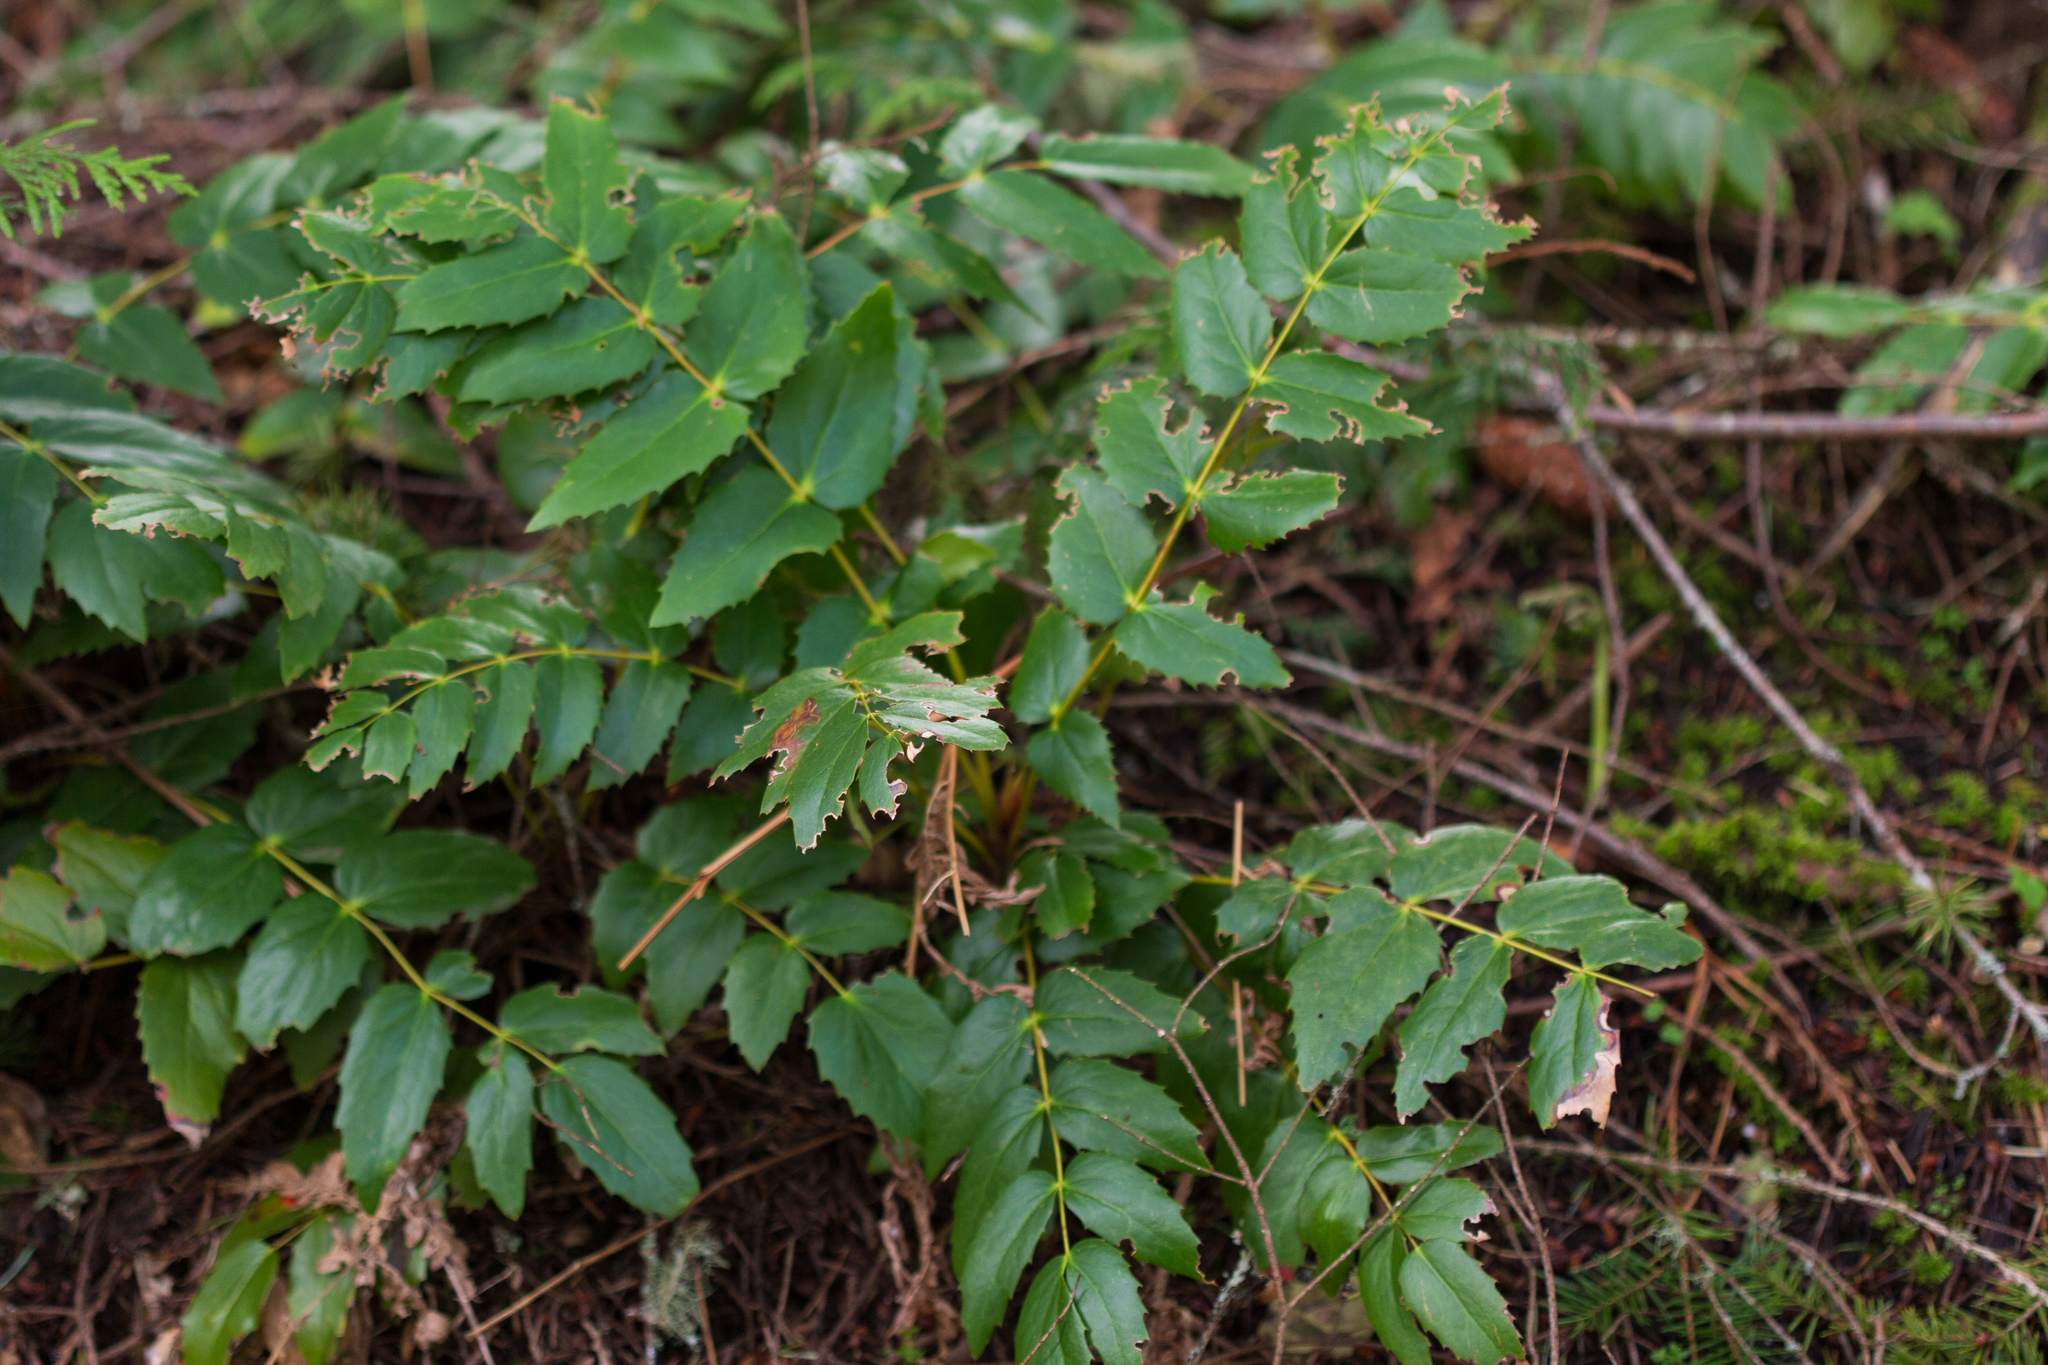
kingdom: Plantae
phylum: Tracheophyta
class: Magnoliopsida
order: Ranunculales
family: Berberidaceae
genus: Mahonia
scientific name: Mahonia nervosa
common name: Cascade oregon-grape
